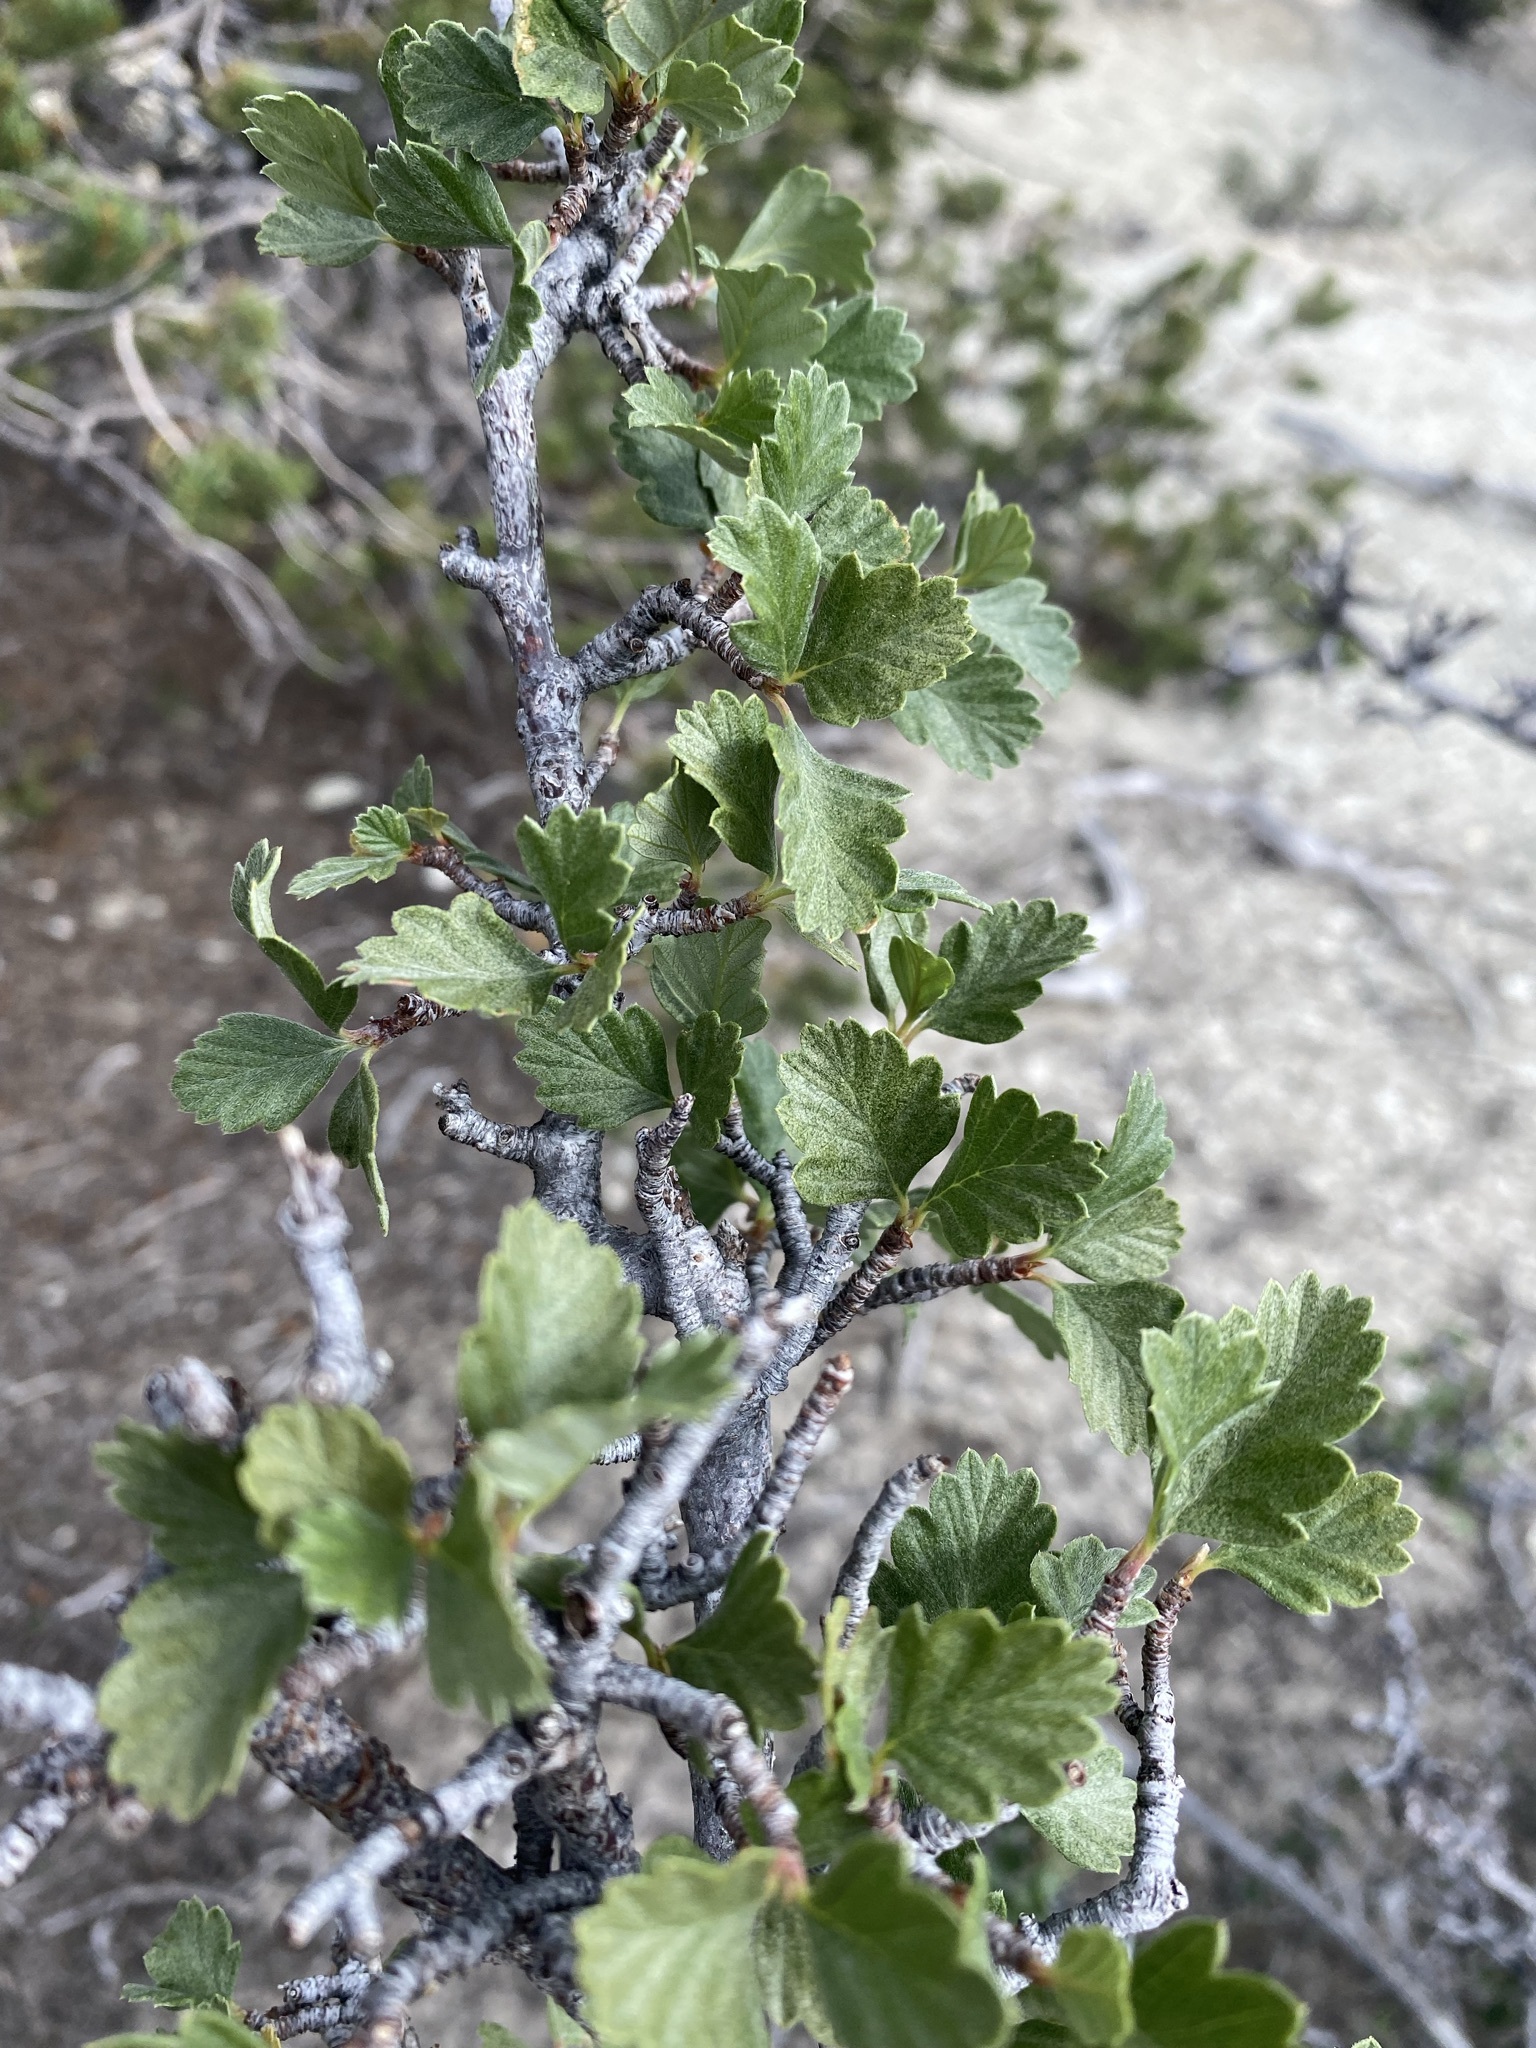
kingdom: Plantae
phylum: Tracheophyta
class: Magnoliopsida
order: Rosales
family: Rosaceae
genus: Cercocarpus
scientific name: Cercocarpus montanus
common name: Alder-leaf cercocarpus
